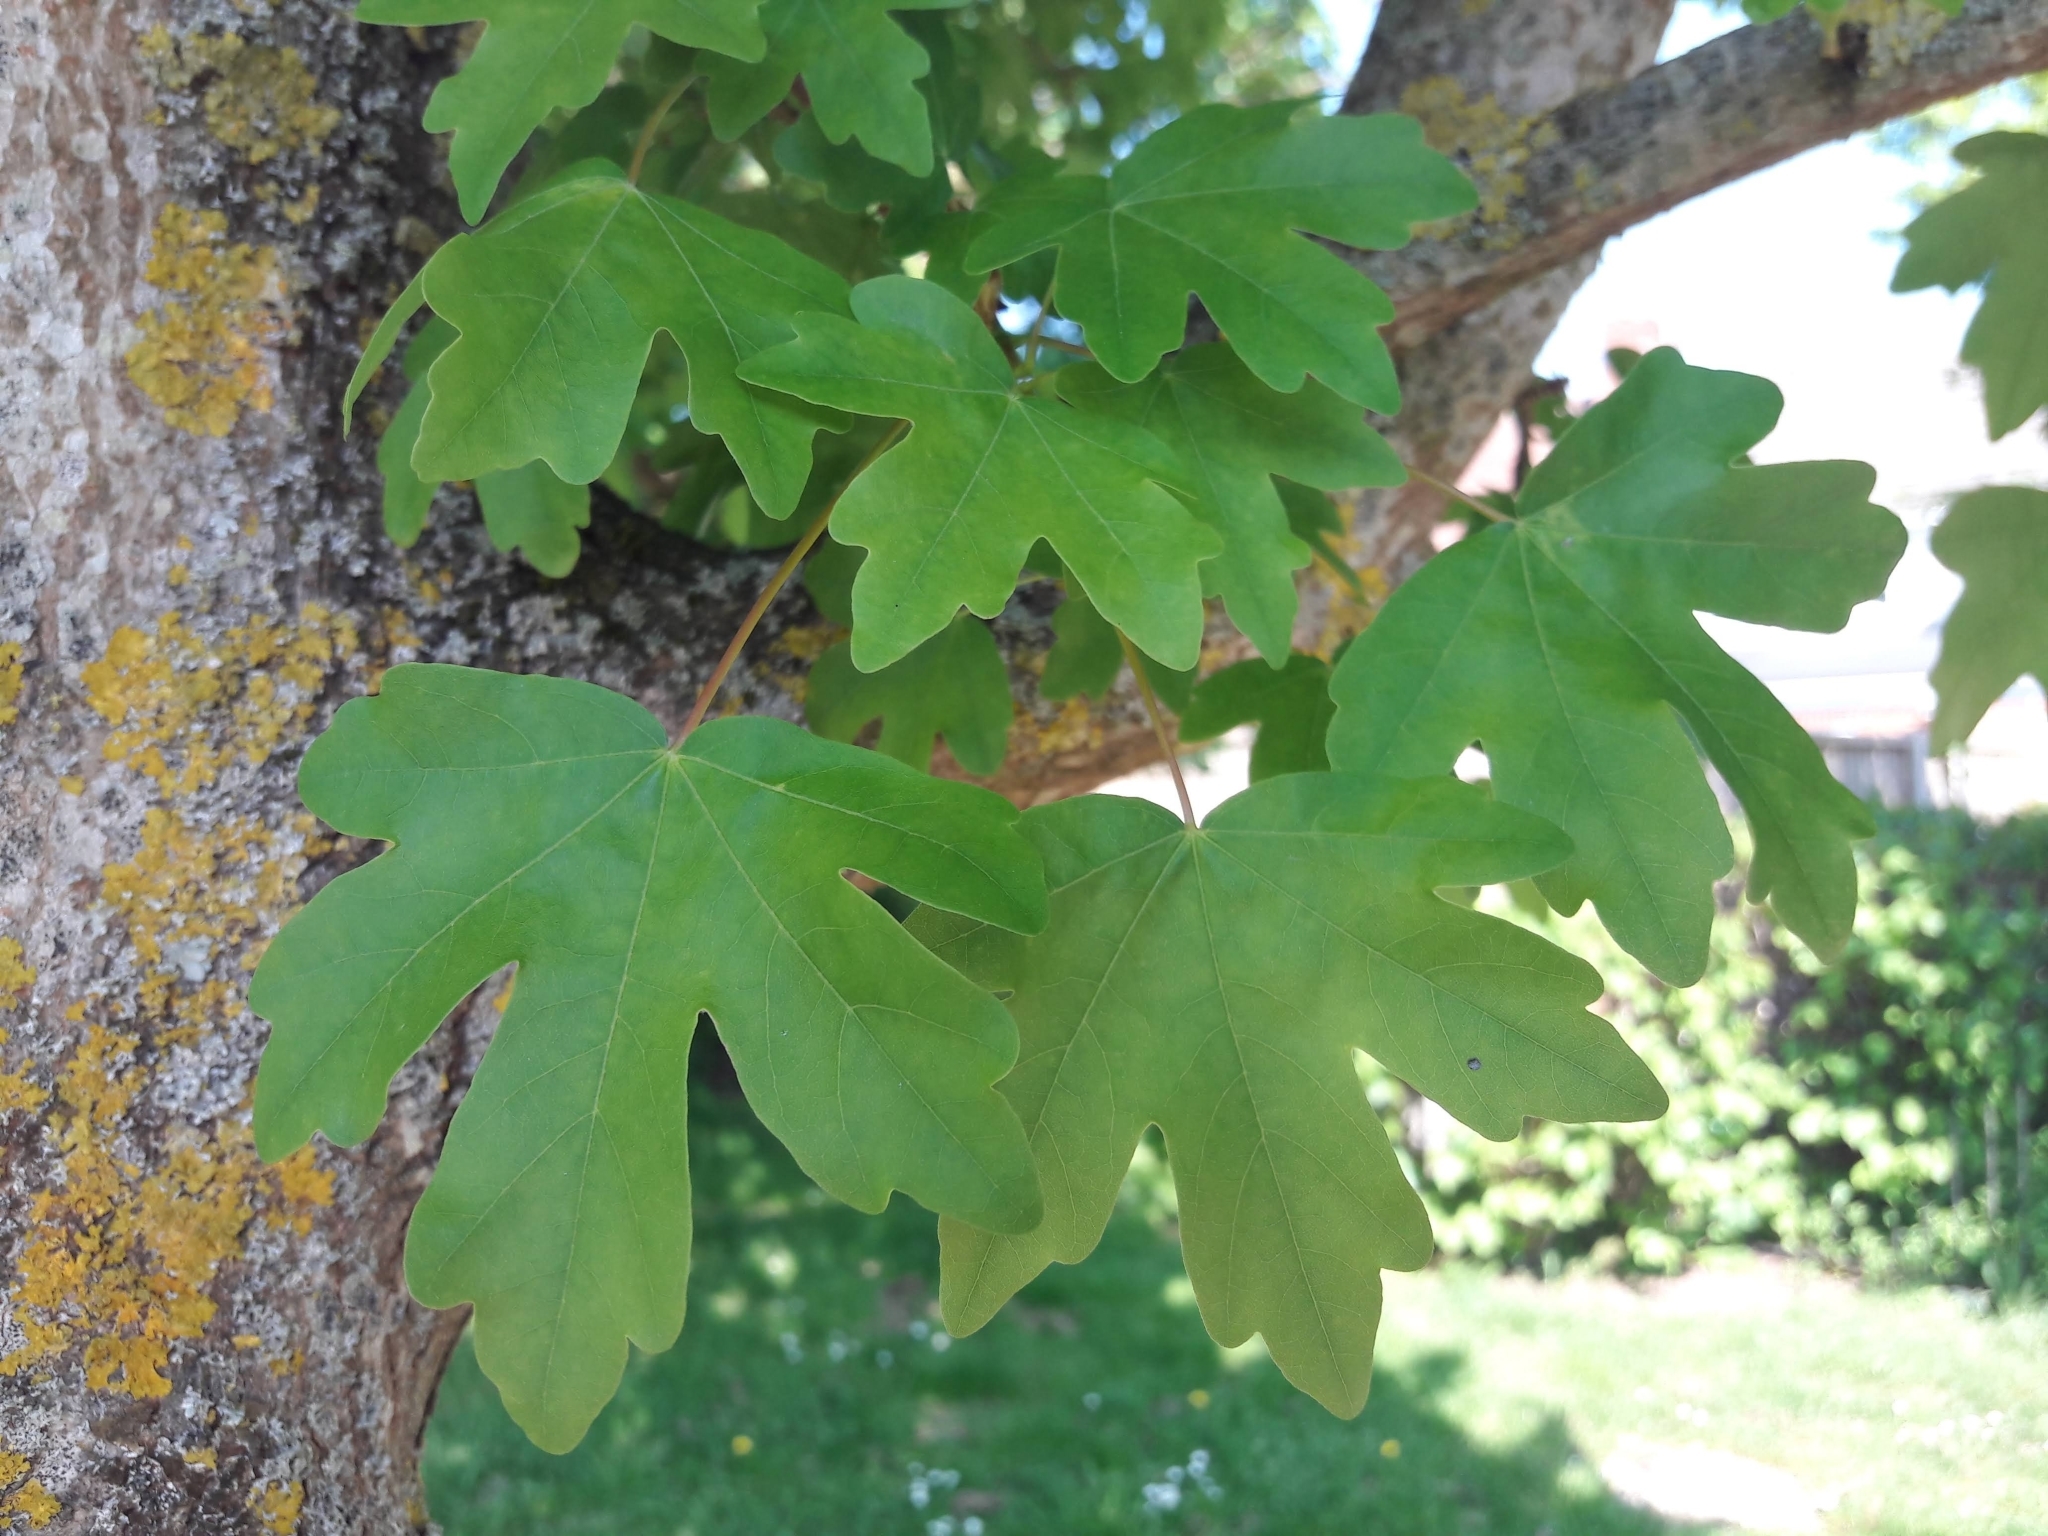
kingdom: Plantae
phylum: Tracheophyta
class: Magnoliopsida
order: Sapindales
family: Sapindaceae
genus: Acer
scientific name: Acer campestre
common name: Field maple
